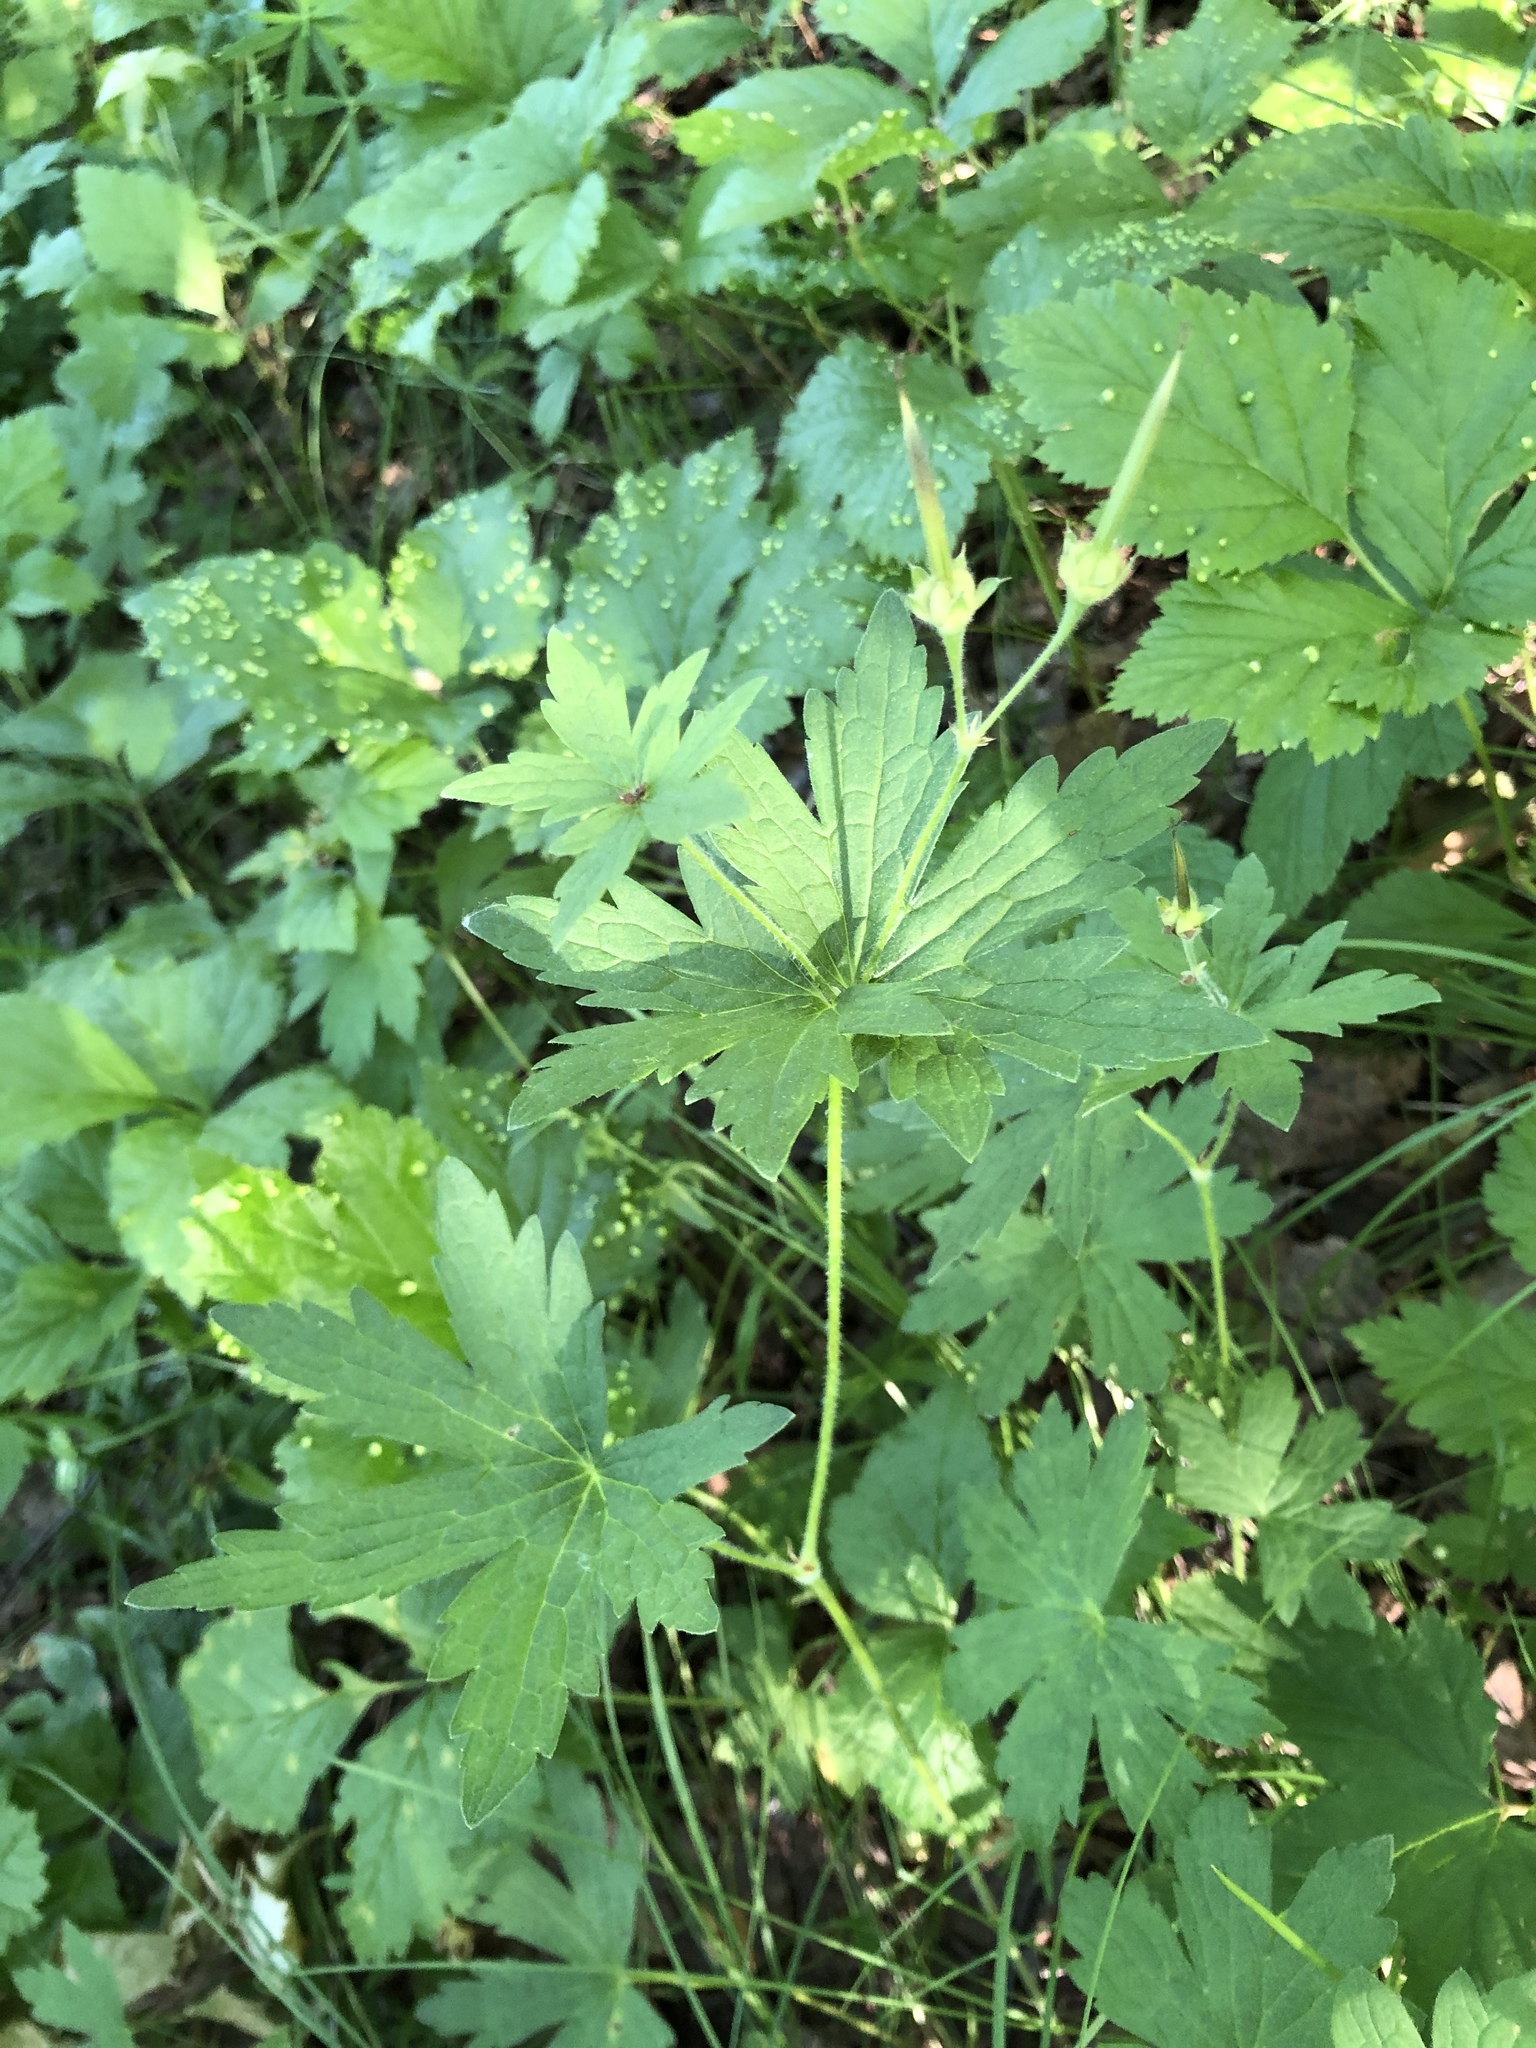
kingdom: Plantae
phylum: Tracheophyta
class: Magnoliopsida
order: Geraniales
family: Geraniaceae
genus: Geranium
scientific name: Geranium sylvaticum
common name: Wood crane's-bill
